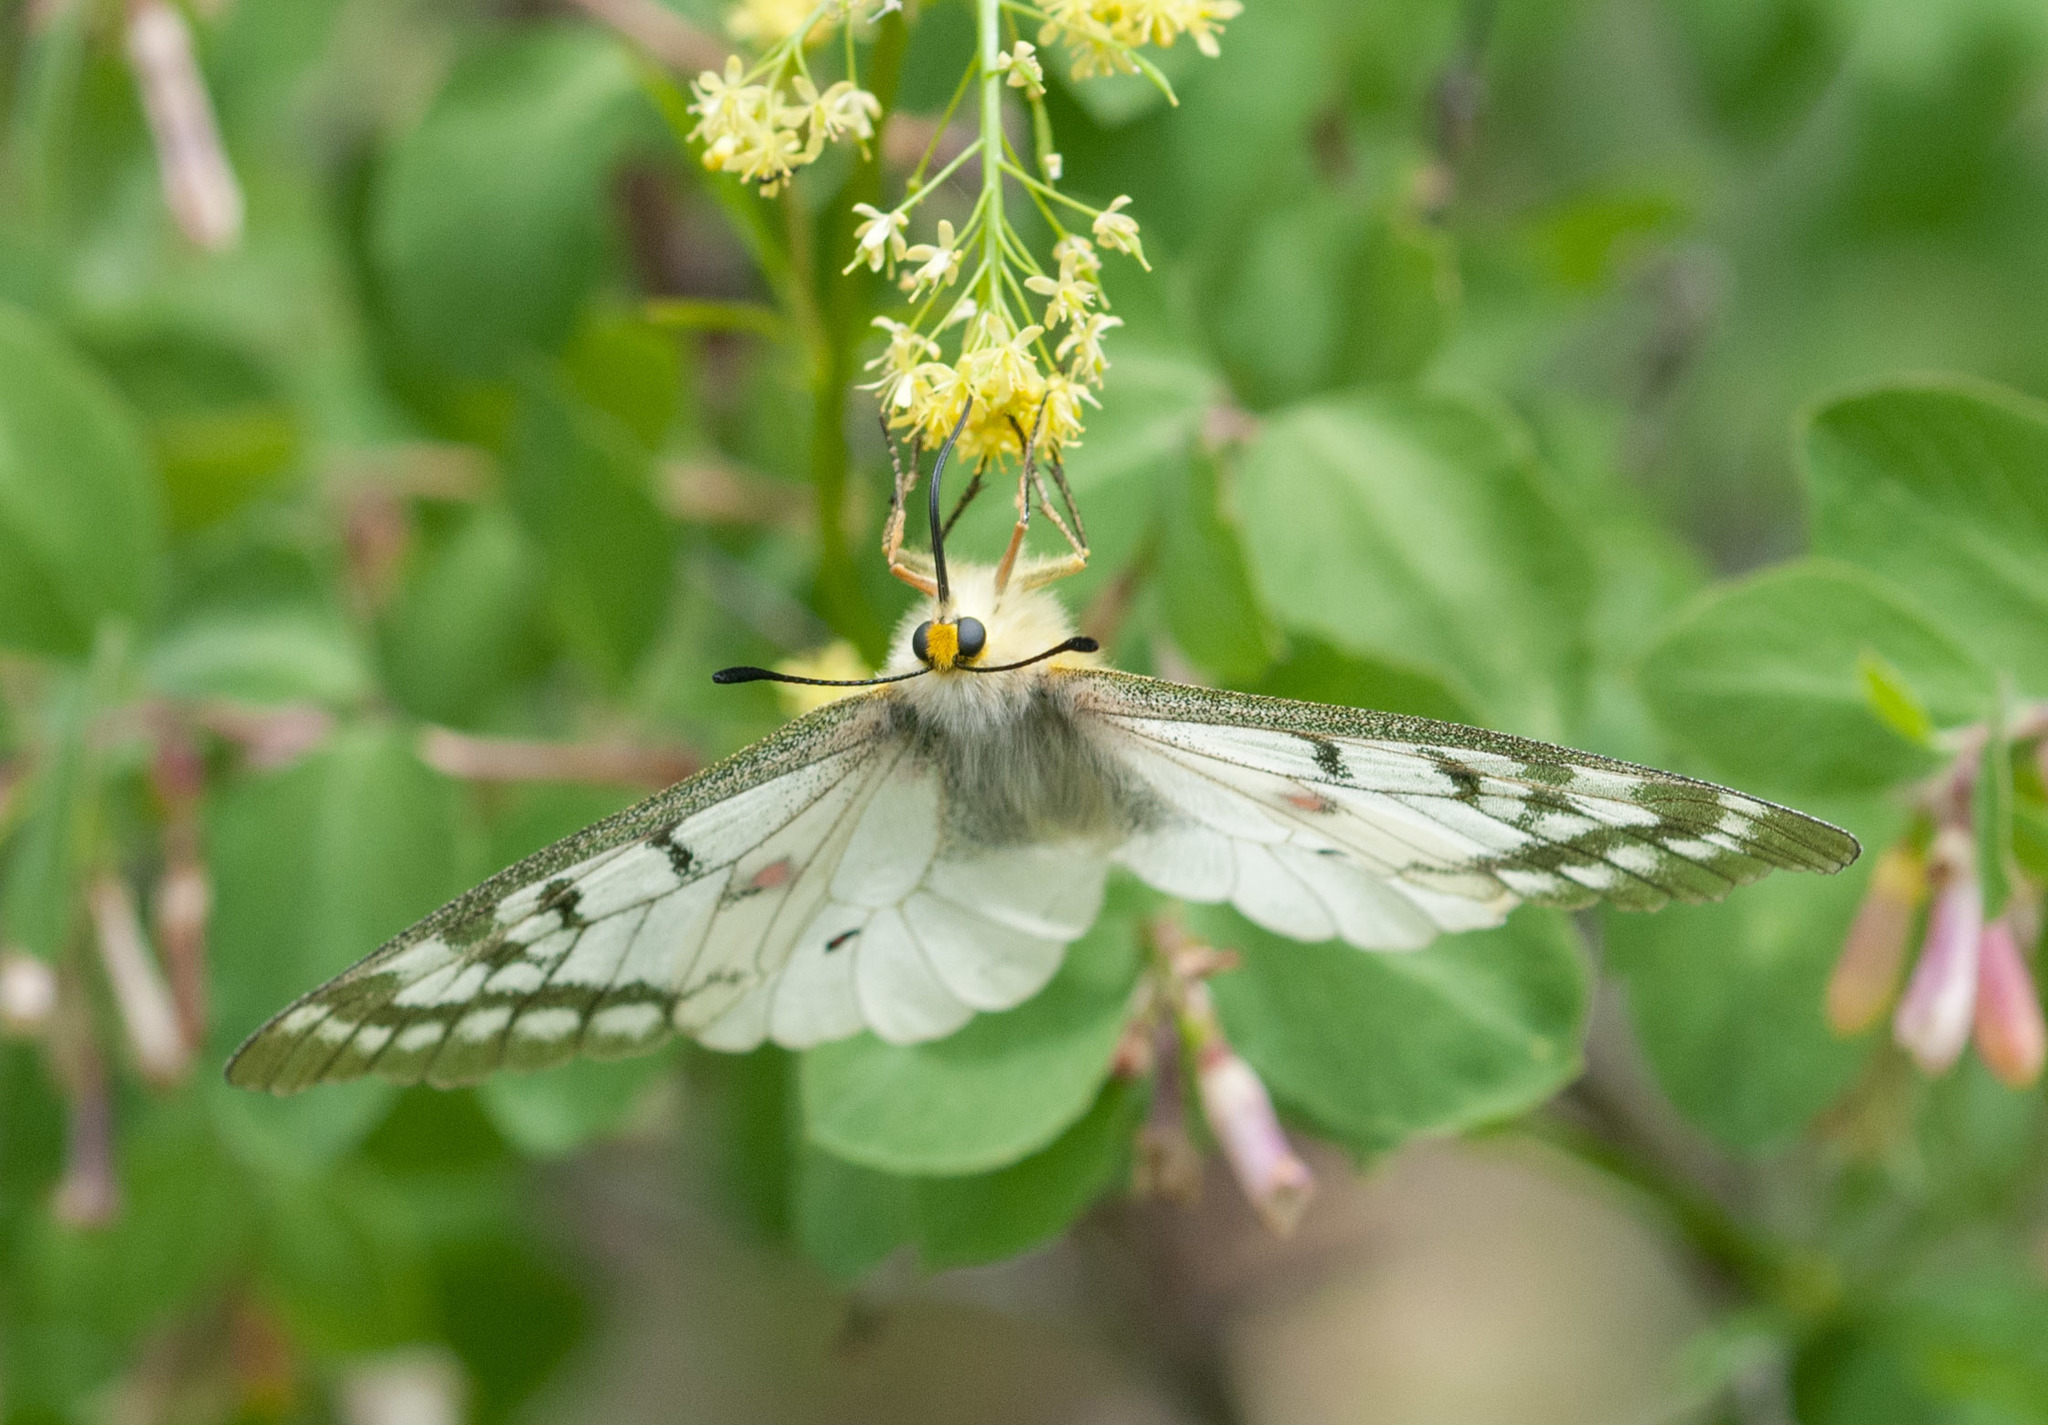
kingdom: Animalia
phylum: Arthropoda
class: Insecta
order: Lepidoptera
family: Papilionidae
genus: Parnassius
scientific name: Parnassius clodius
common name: American apollo
